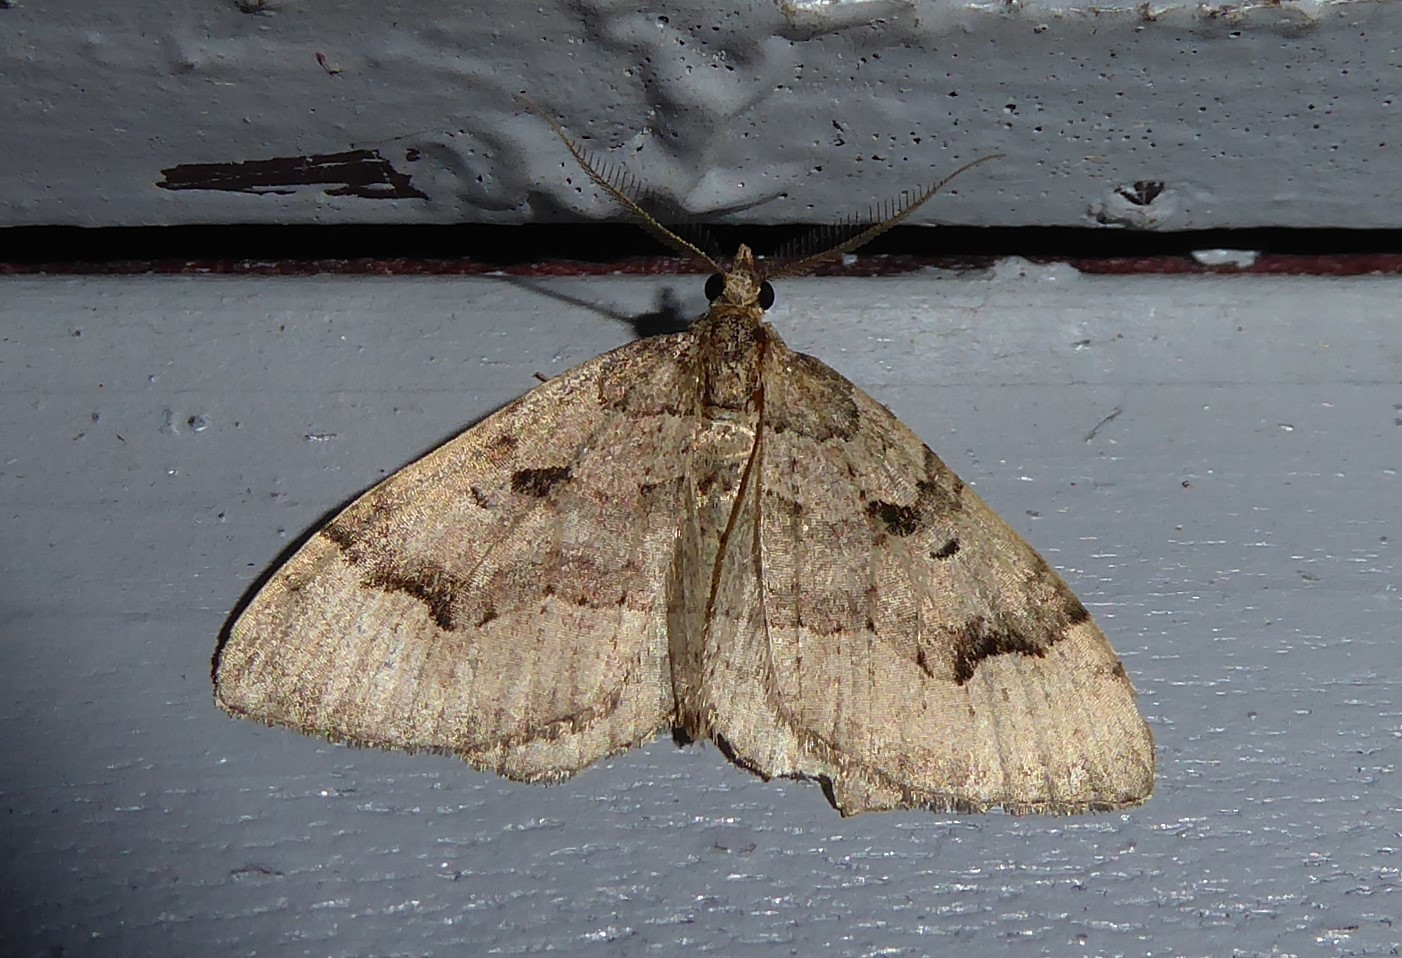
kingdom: Animalia
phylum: Arthropoda
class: Insecta
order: Lepidoptera
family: Geometridae
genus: Epyaxa
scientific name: Epyaxa rosearia
